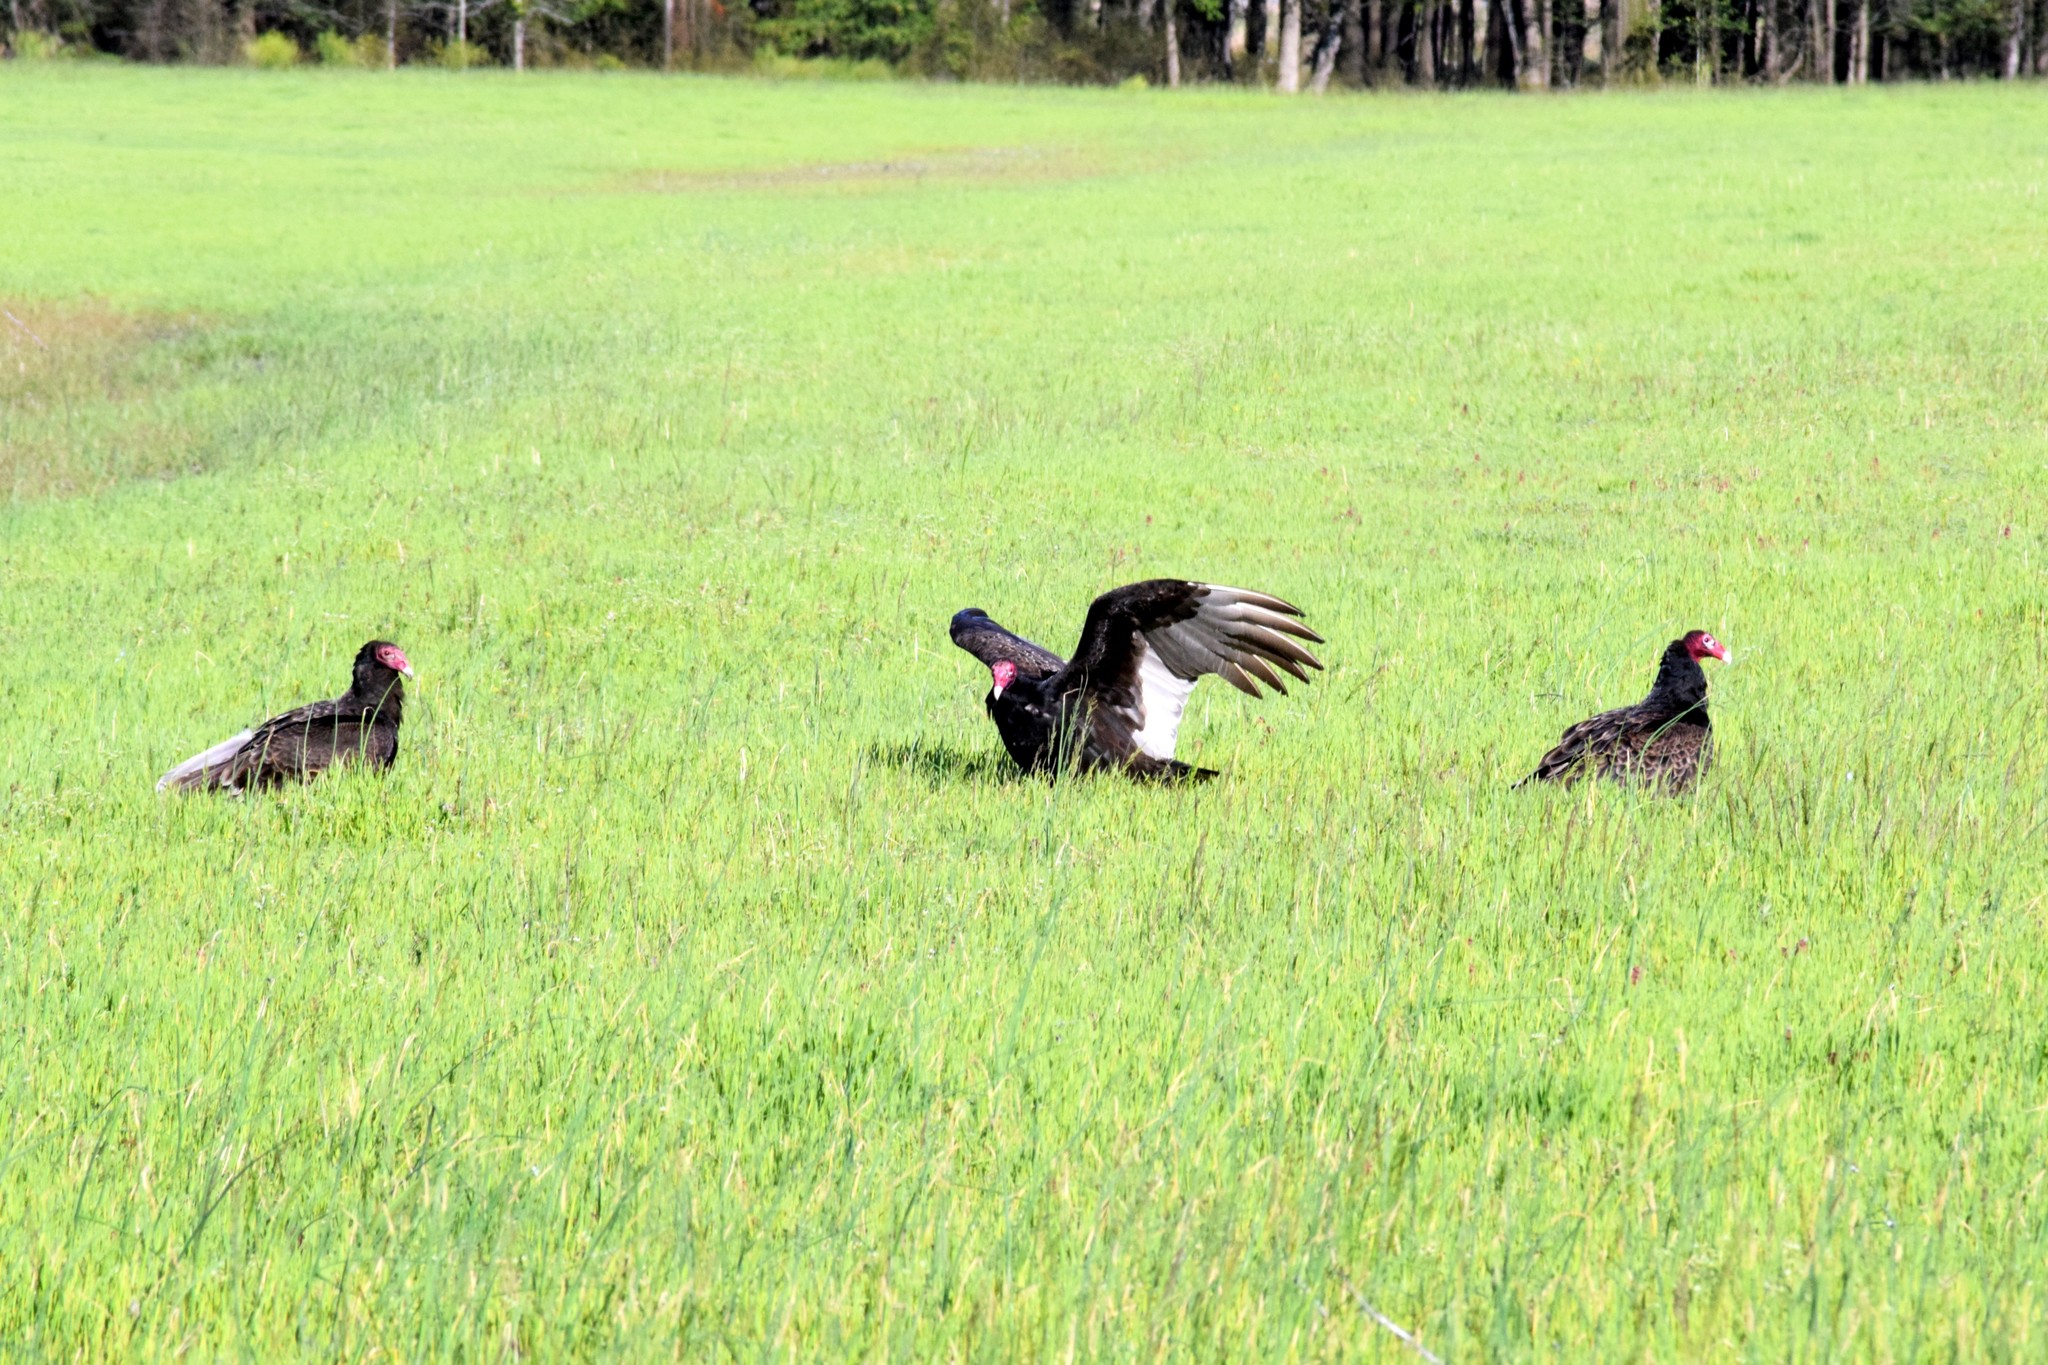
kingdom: Animalia
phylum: Chordata
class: Aves
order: Accipitriformes
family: Cathartidae
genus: Cathartes
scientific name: Cathartes aura
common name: Turkey vulture
